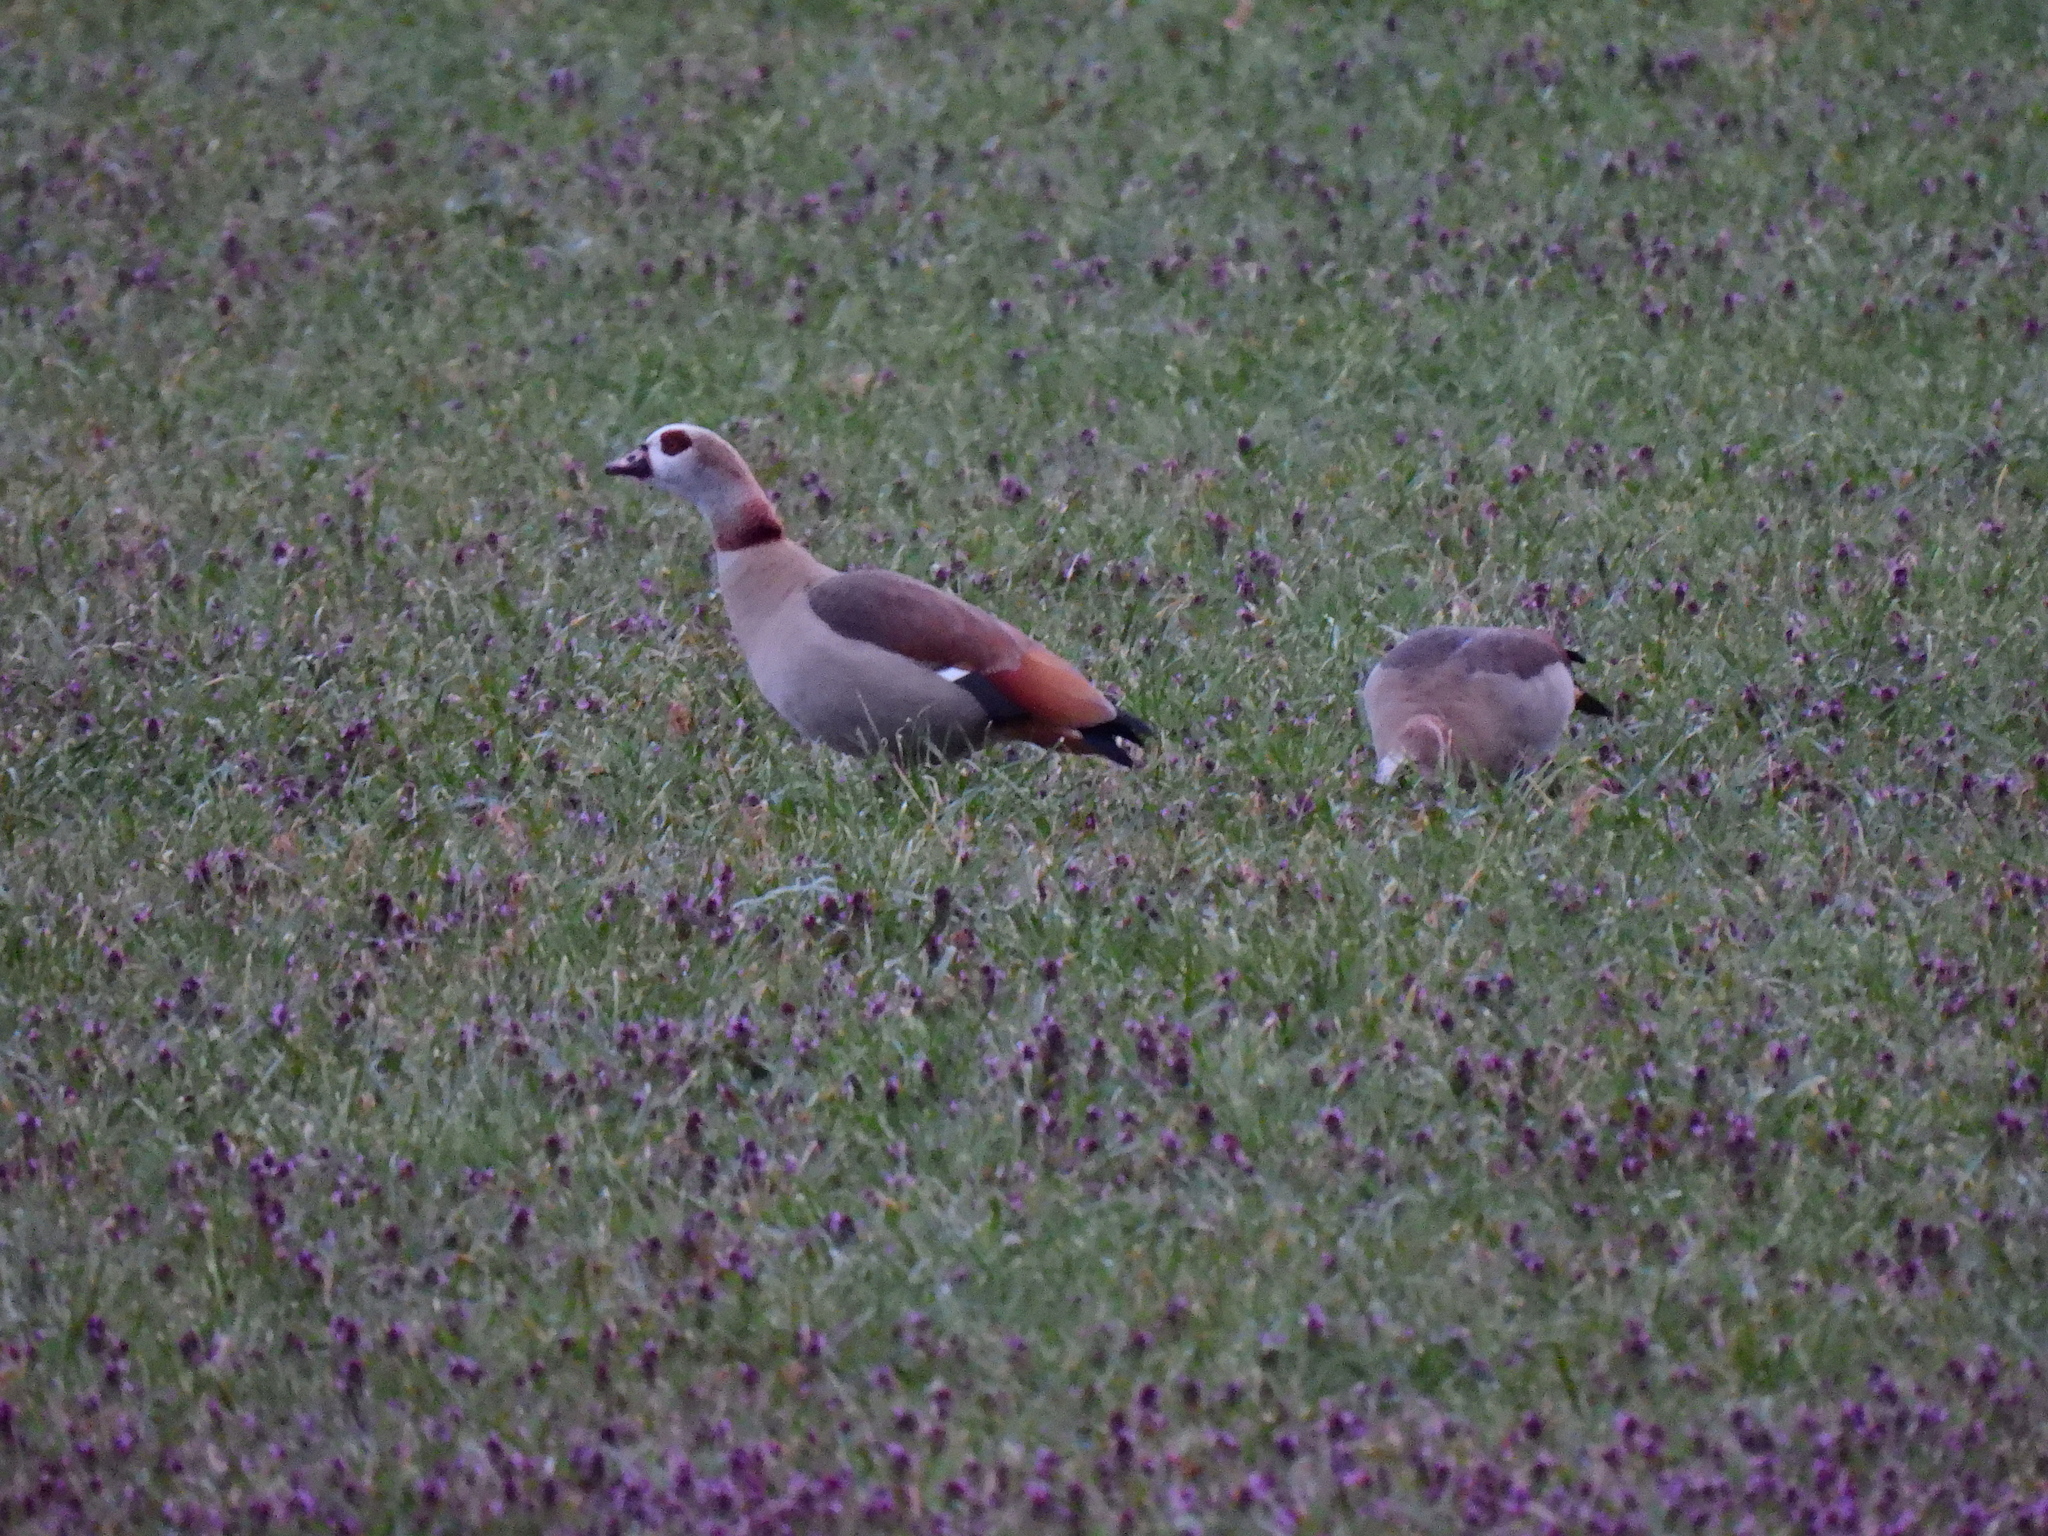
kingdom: Animalia
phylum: Chordata
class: Aves
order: Anseriformes
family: Anatidae
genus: Alopochen
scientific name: Alopochen aegyptiaca
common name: Egyptian goose
